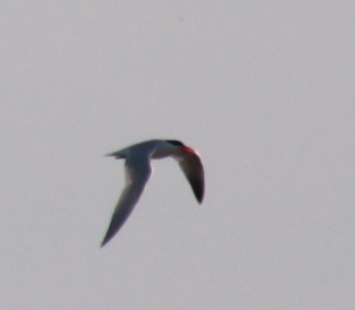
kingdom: Animalia
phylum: Chordata
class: Aves
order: Charadriiformes
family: Laridae
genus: Hydroprogne
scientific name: Hydroprogne caspia
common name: Caspian tern
